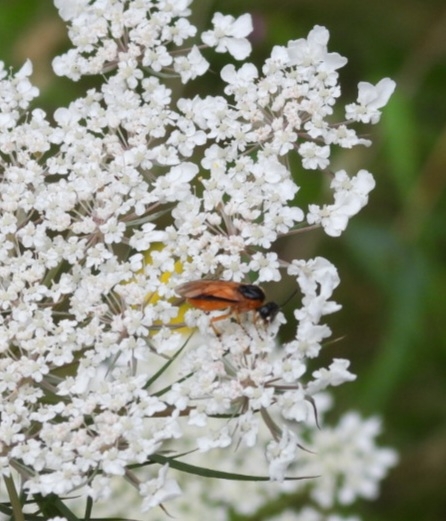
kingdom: Animalia
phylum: Arthropoda
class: Insecta
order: Hymenoptera
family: Argidae
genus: Arge
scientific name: Arge ochropus
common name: Argid sawfly
